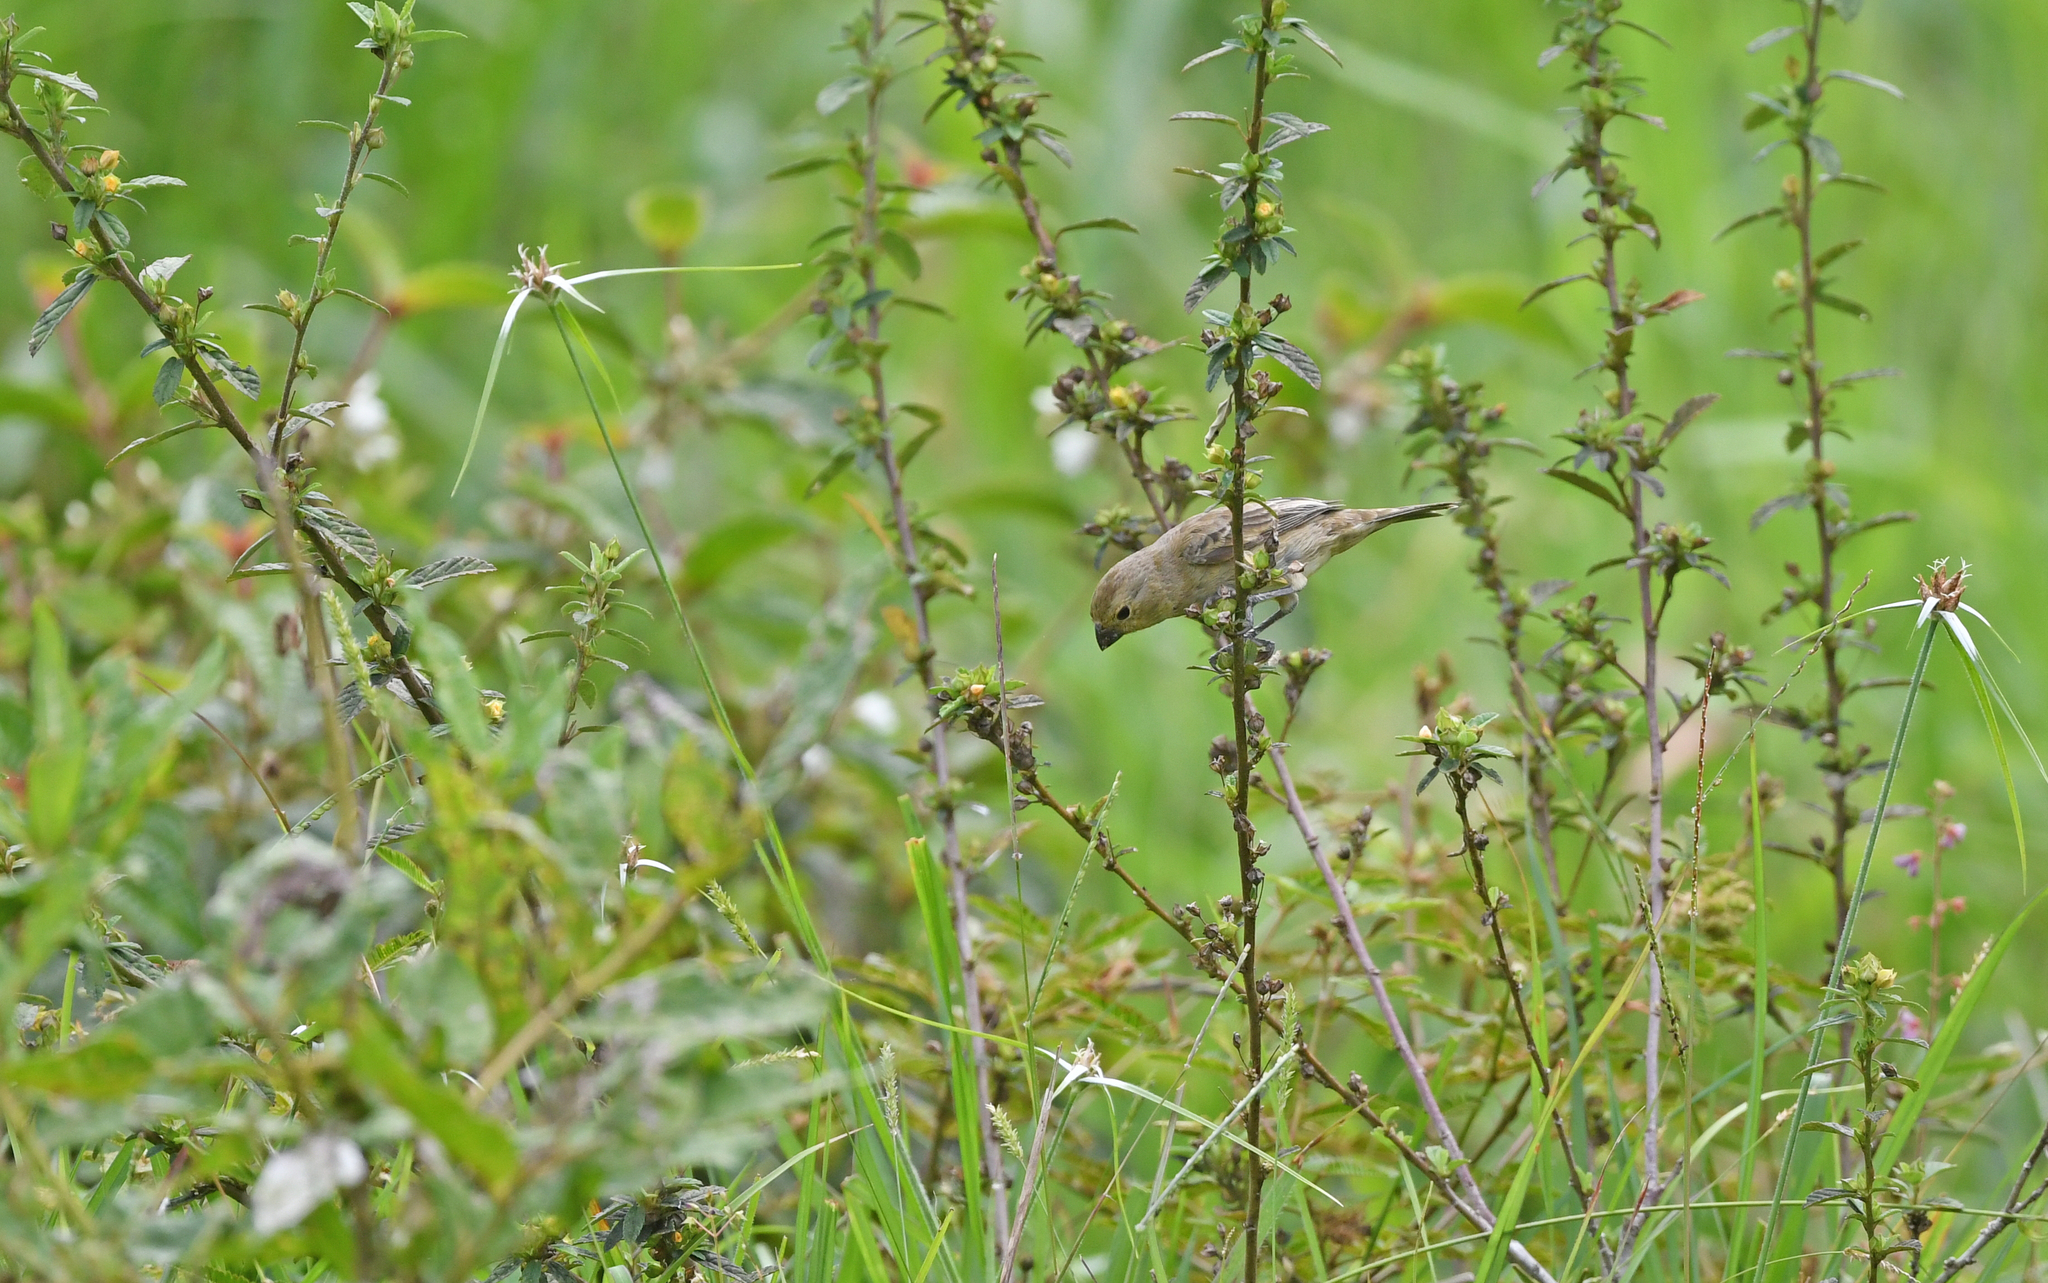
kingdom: Animalia
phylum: Chordata
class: Aves
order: Passeriformes
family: Thraupidae
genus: Sporophila
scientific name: Sporophila nigricollis
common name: Yellow-bellied seedeater
